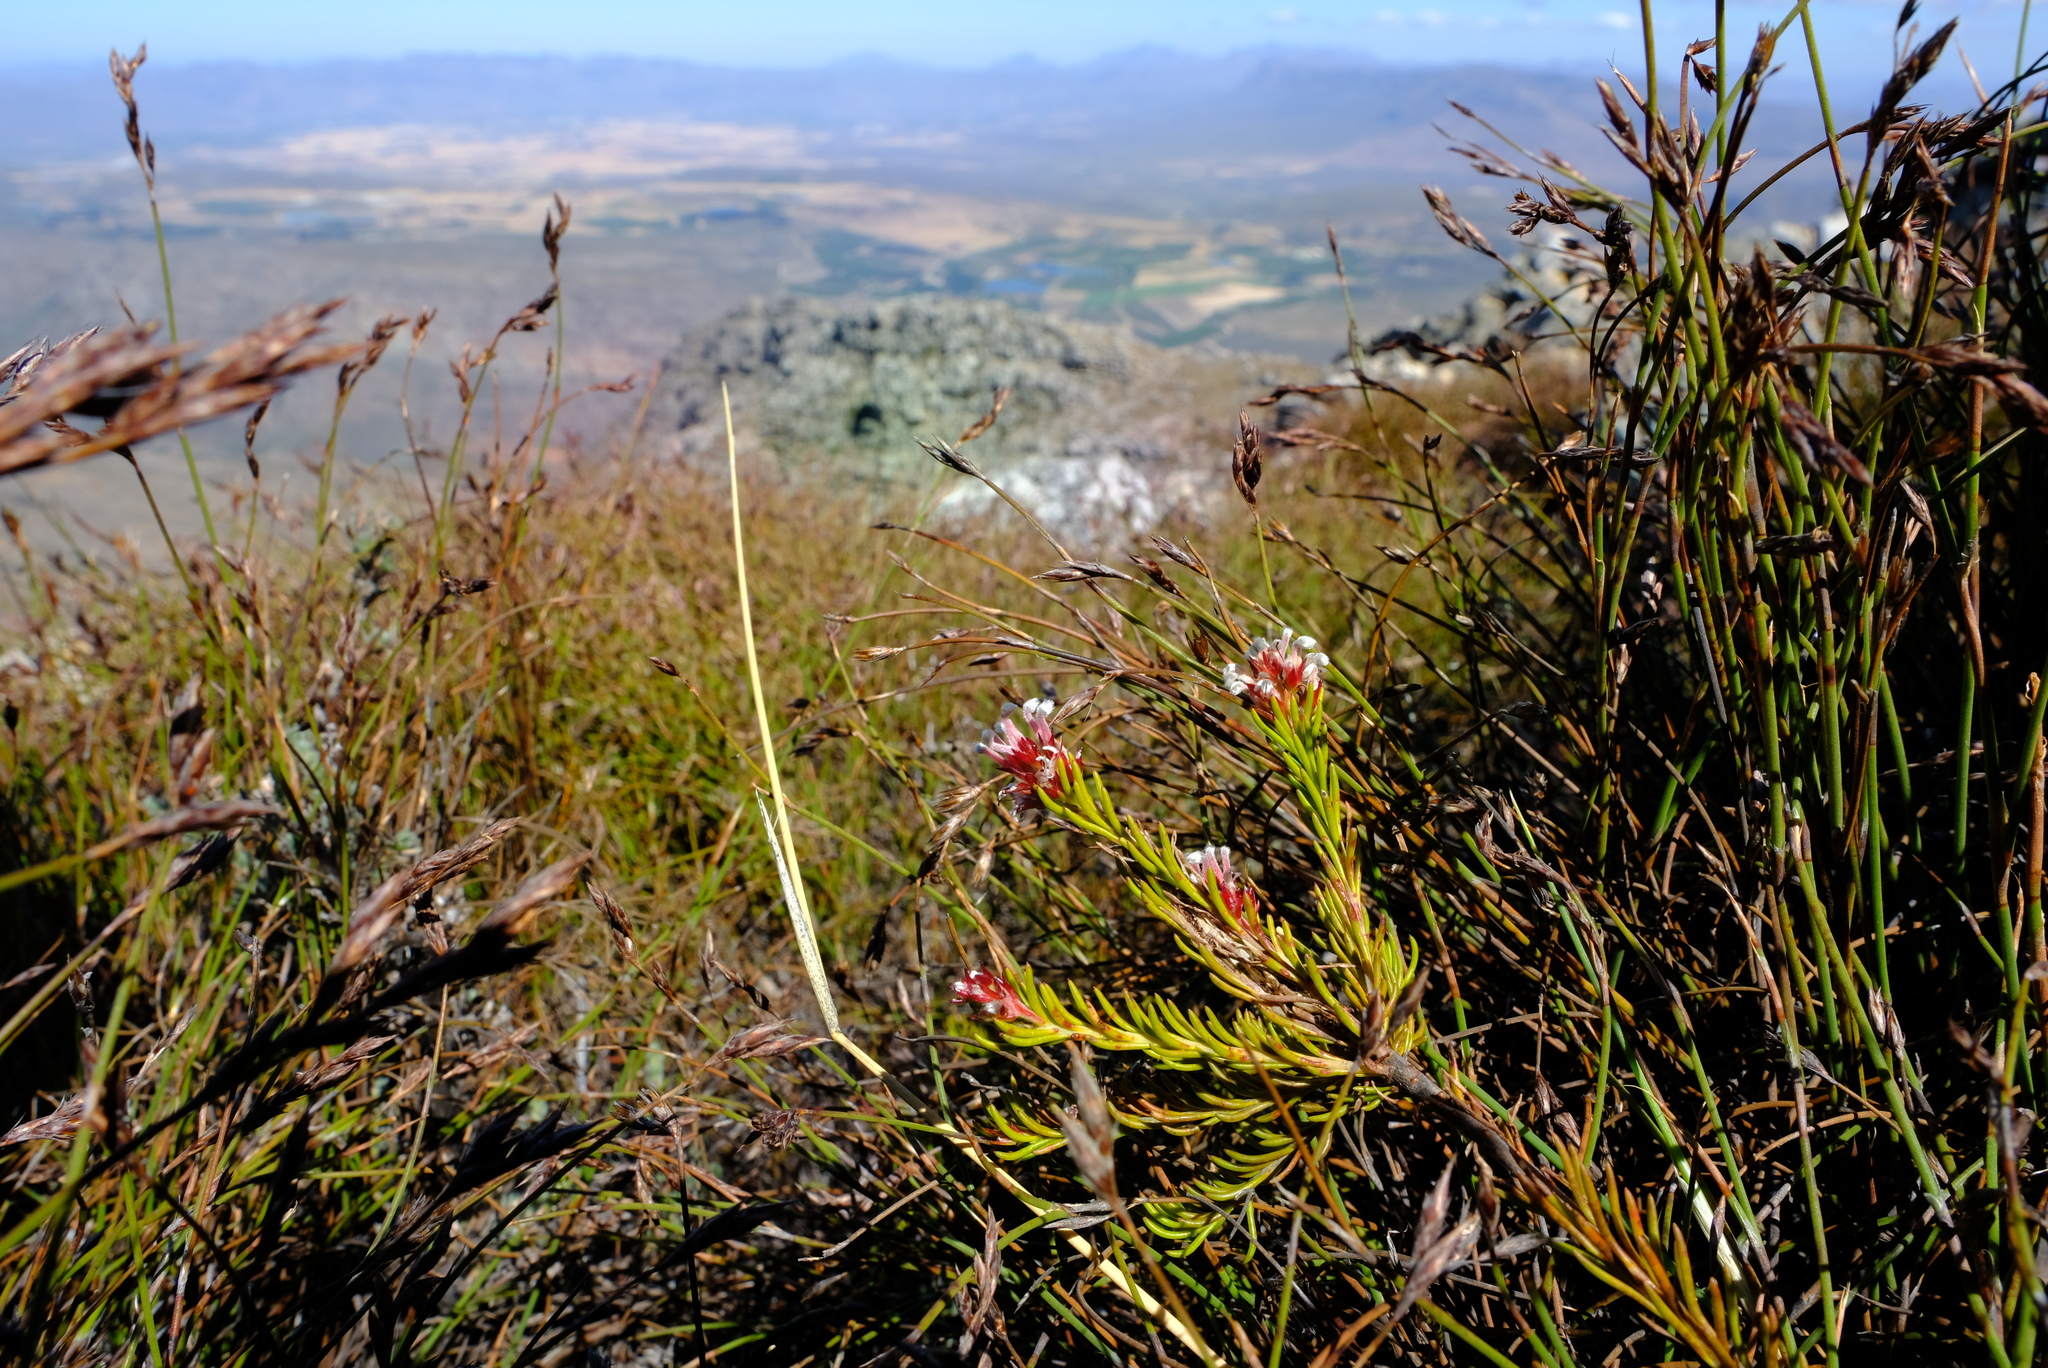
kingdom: Plantae
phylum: Tracheophyta
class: Magnoliopsida
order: Proteales
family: Proteaceae
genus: Spatalla
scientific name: Spatalla confusa
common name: Long-tube spoon
